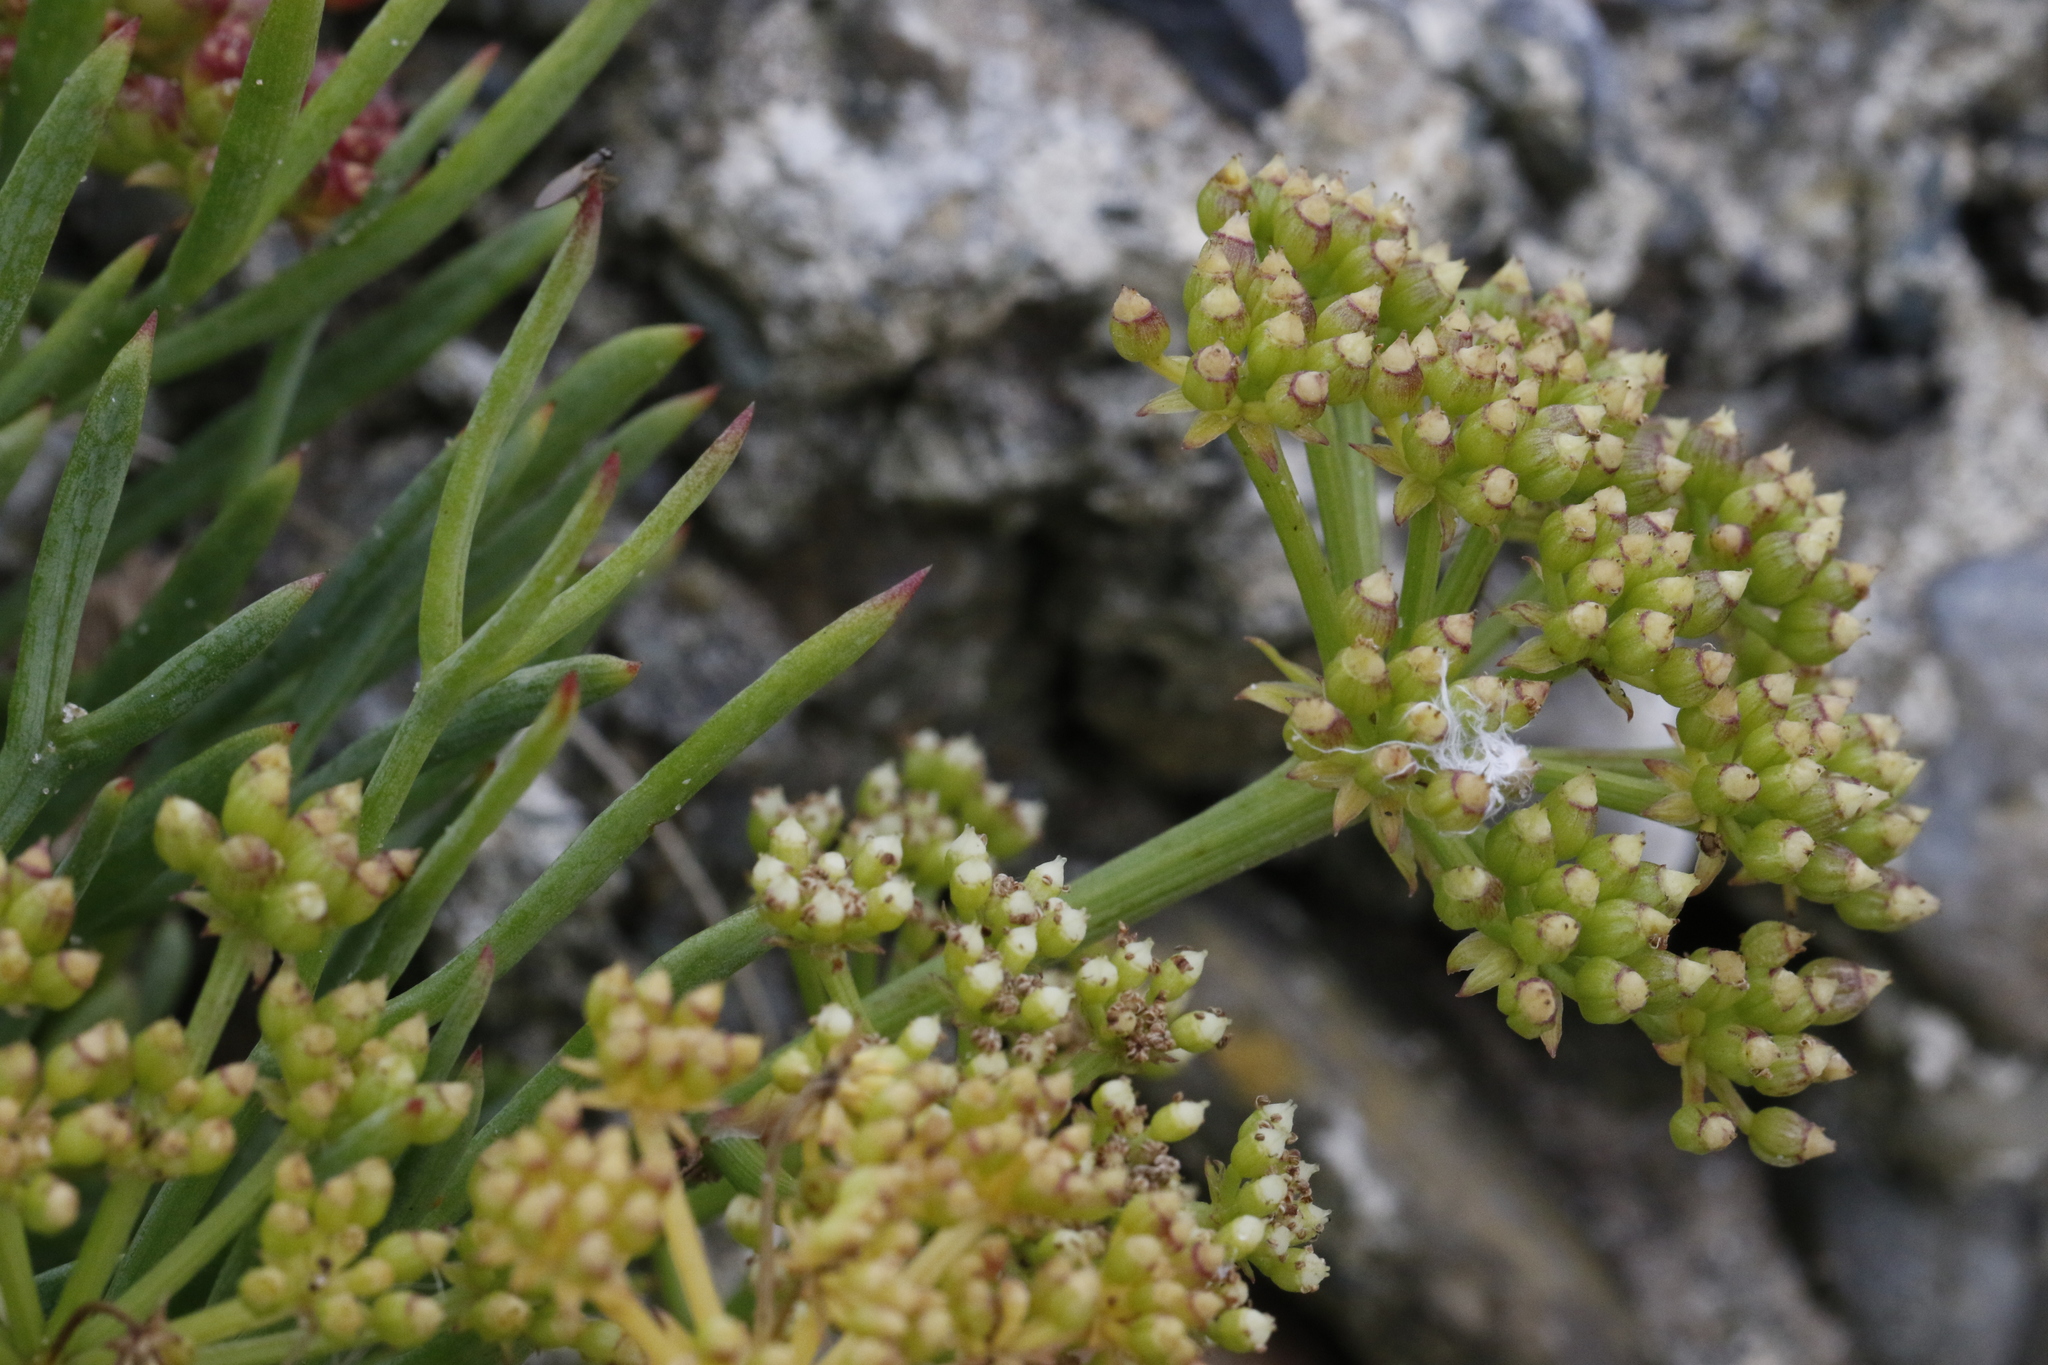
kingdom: Plantae
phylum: Tracheophyta
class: Magnoliopsida
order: Apiales
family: Apiaceae
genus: Crithmum
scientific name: Crithmum maritimum
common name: Rock samphire
